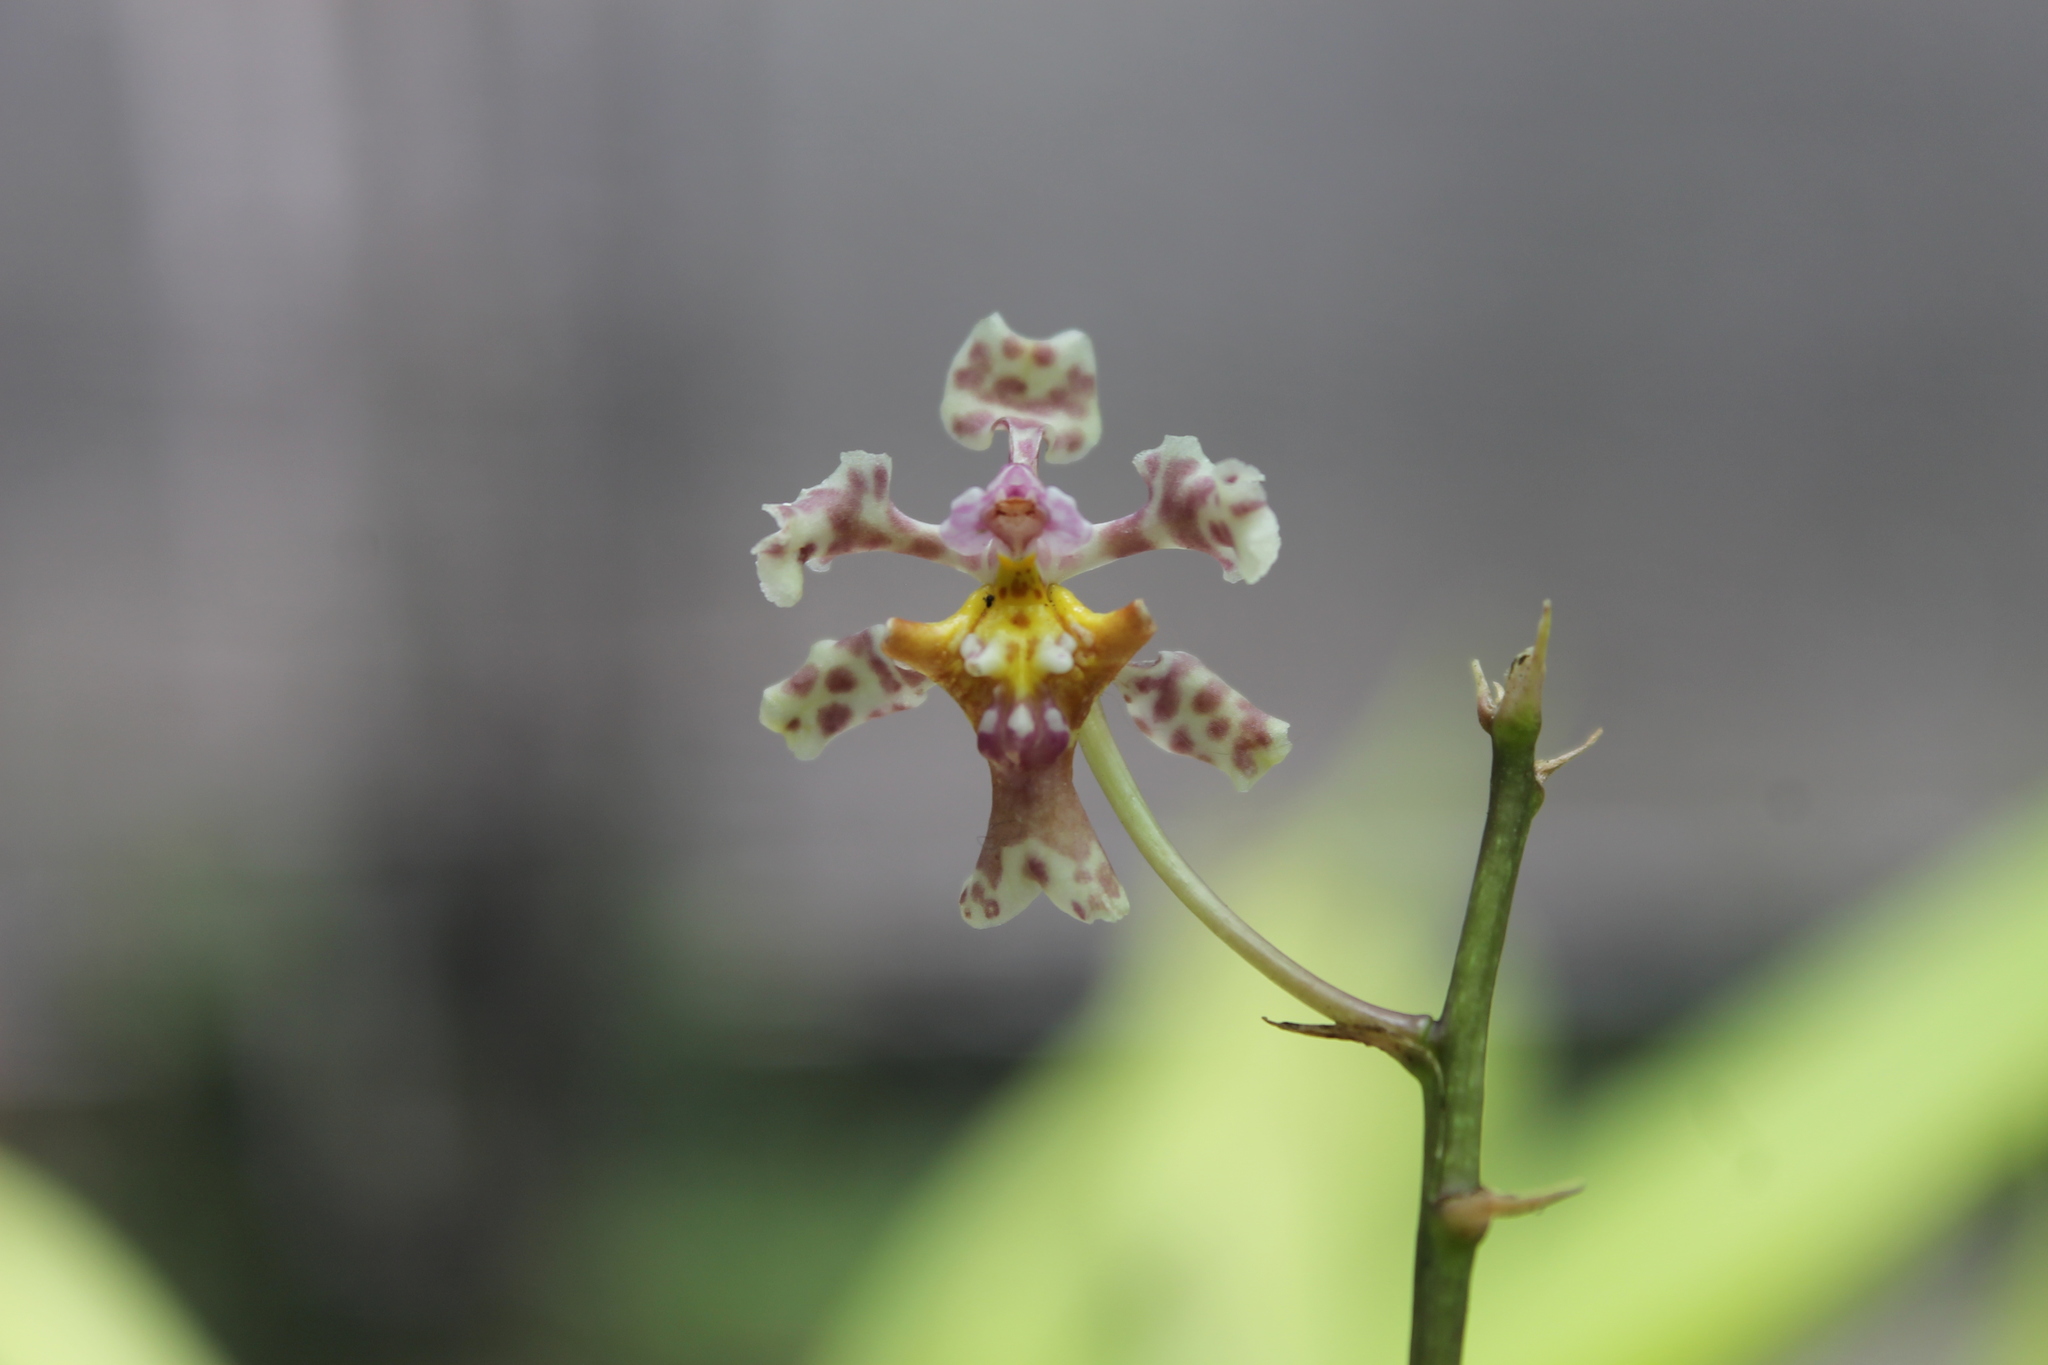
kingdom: Plantae
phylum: Tracheophyta
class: Liliopsida
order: Asparagales
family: Orchidaceae
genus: Trichocentrum
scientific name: Trichocentrum oerstedii
